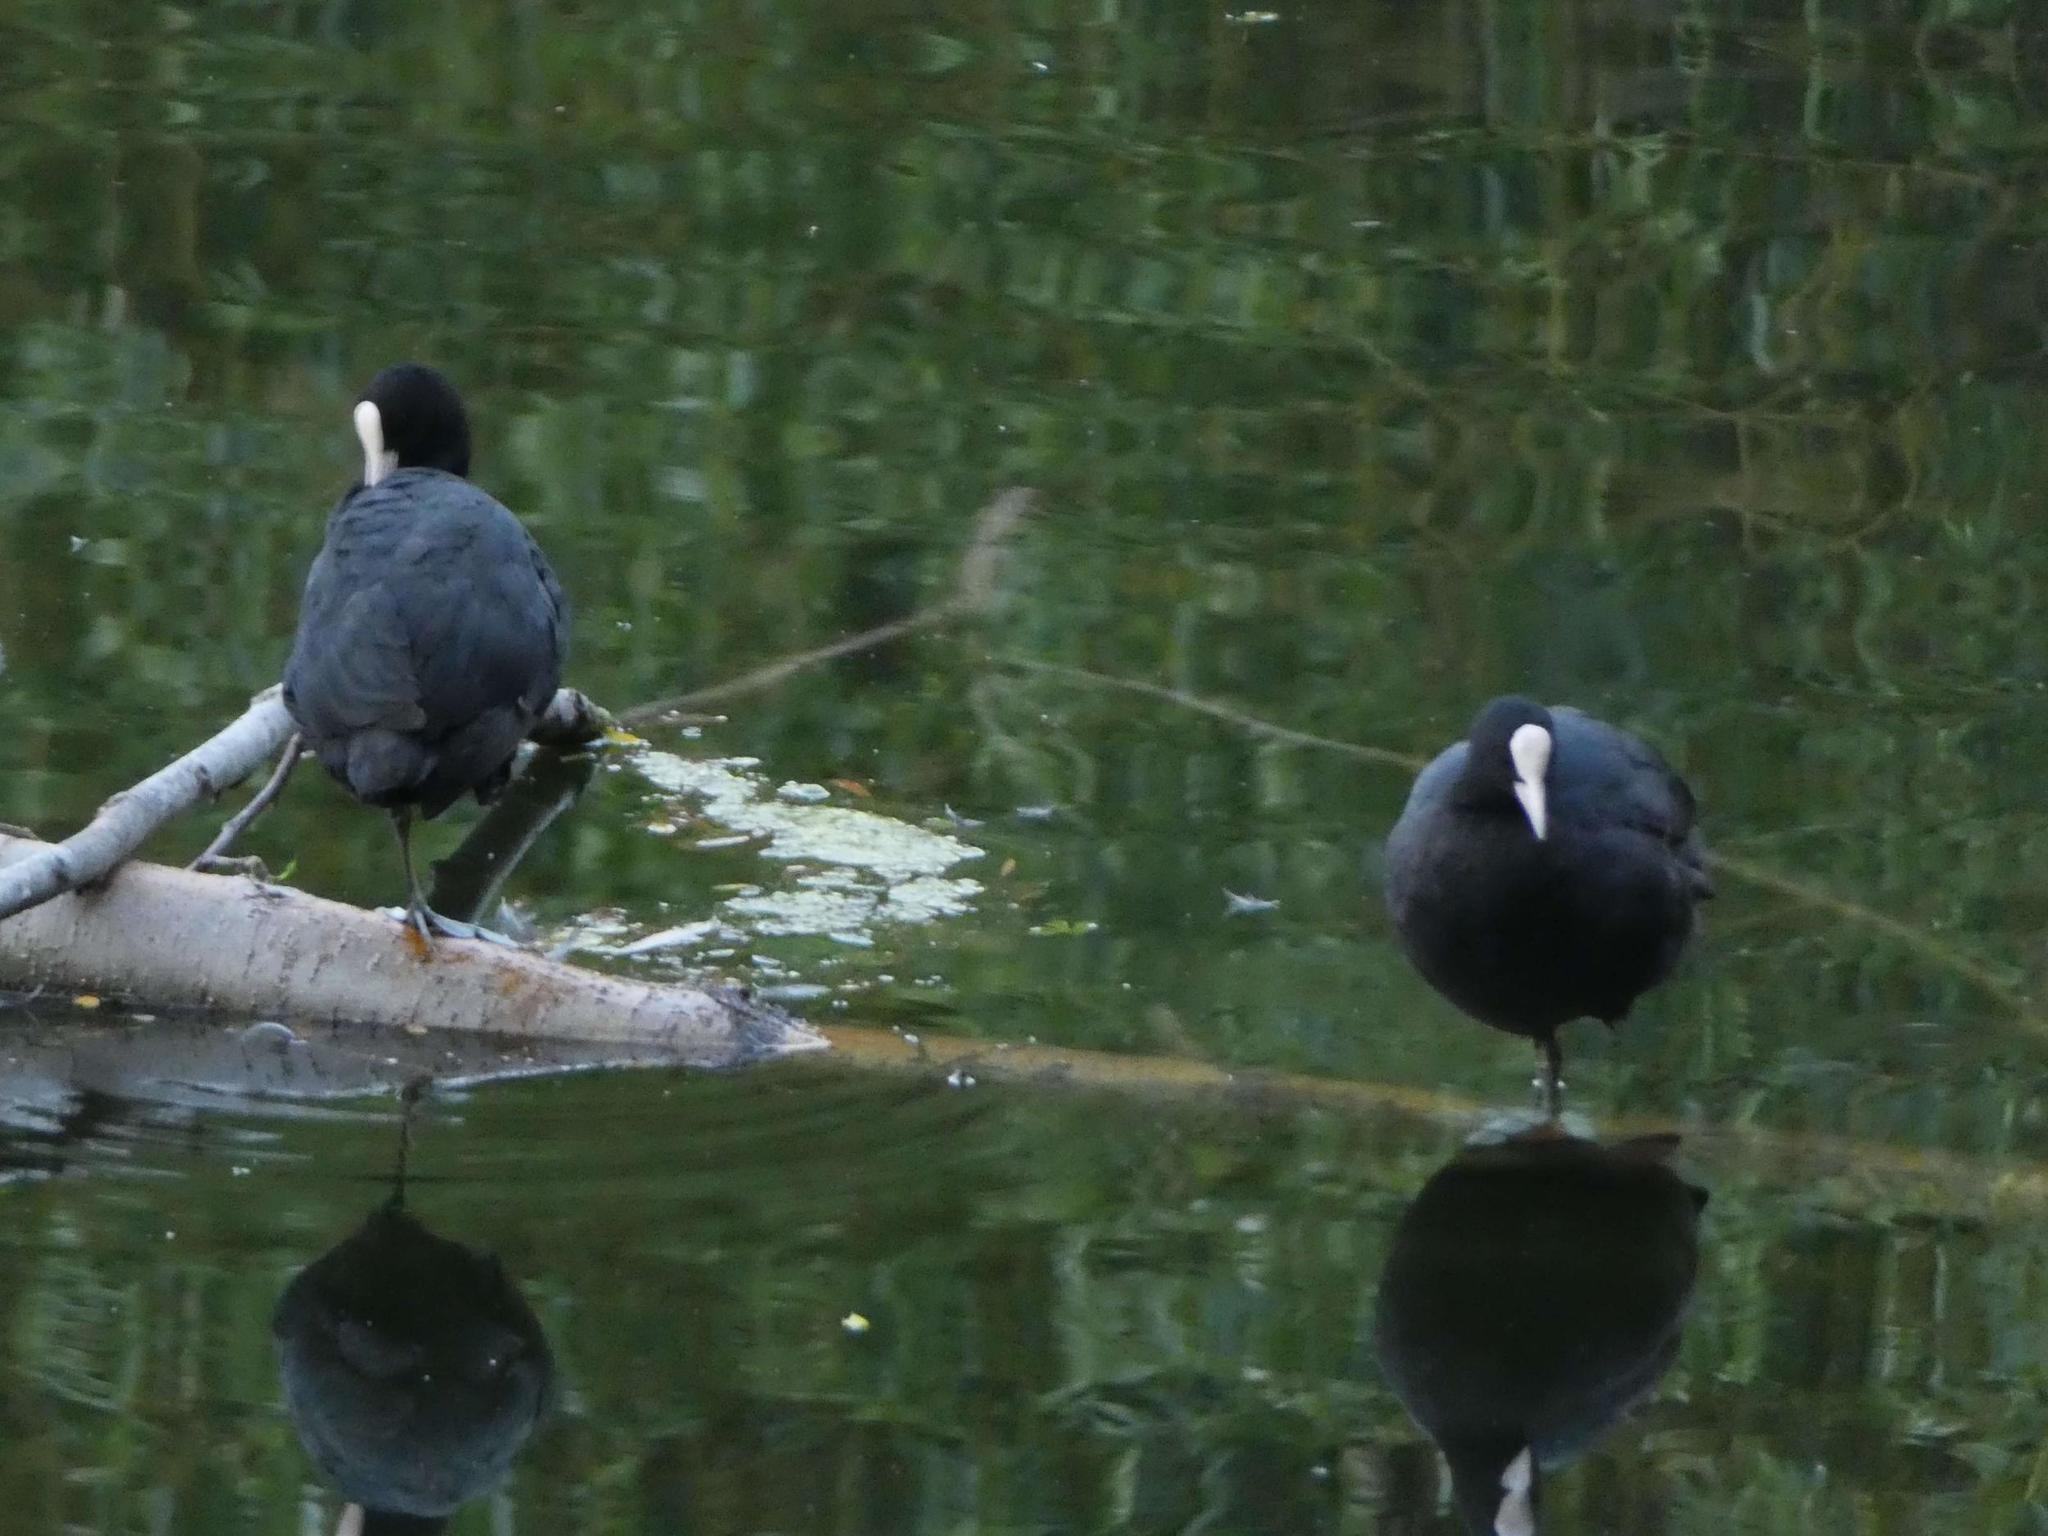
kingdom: Animalia
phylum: Chordata
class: Aves
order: Gruiformes
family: Rallidae
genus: Fulica
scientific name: Fulica atra
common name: Eurasian coot
